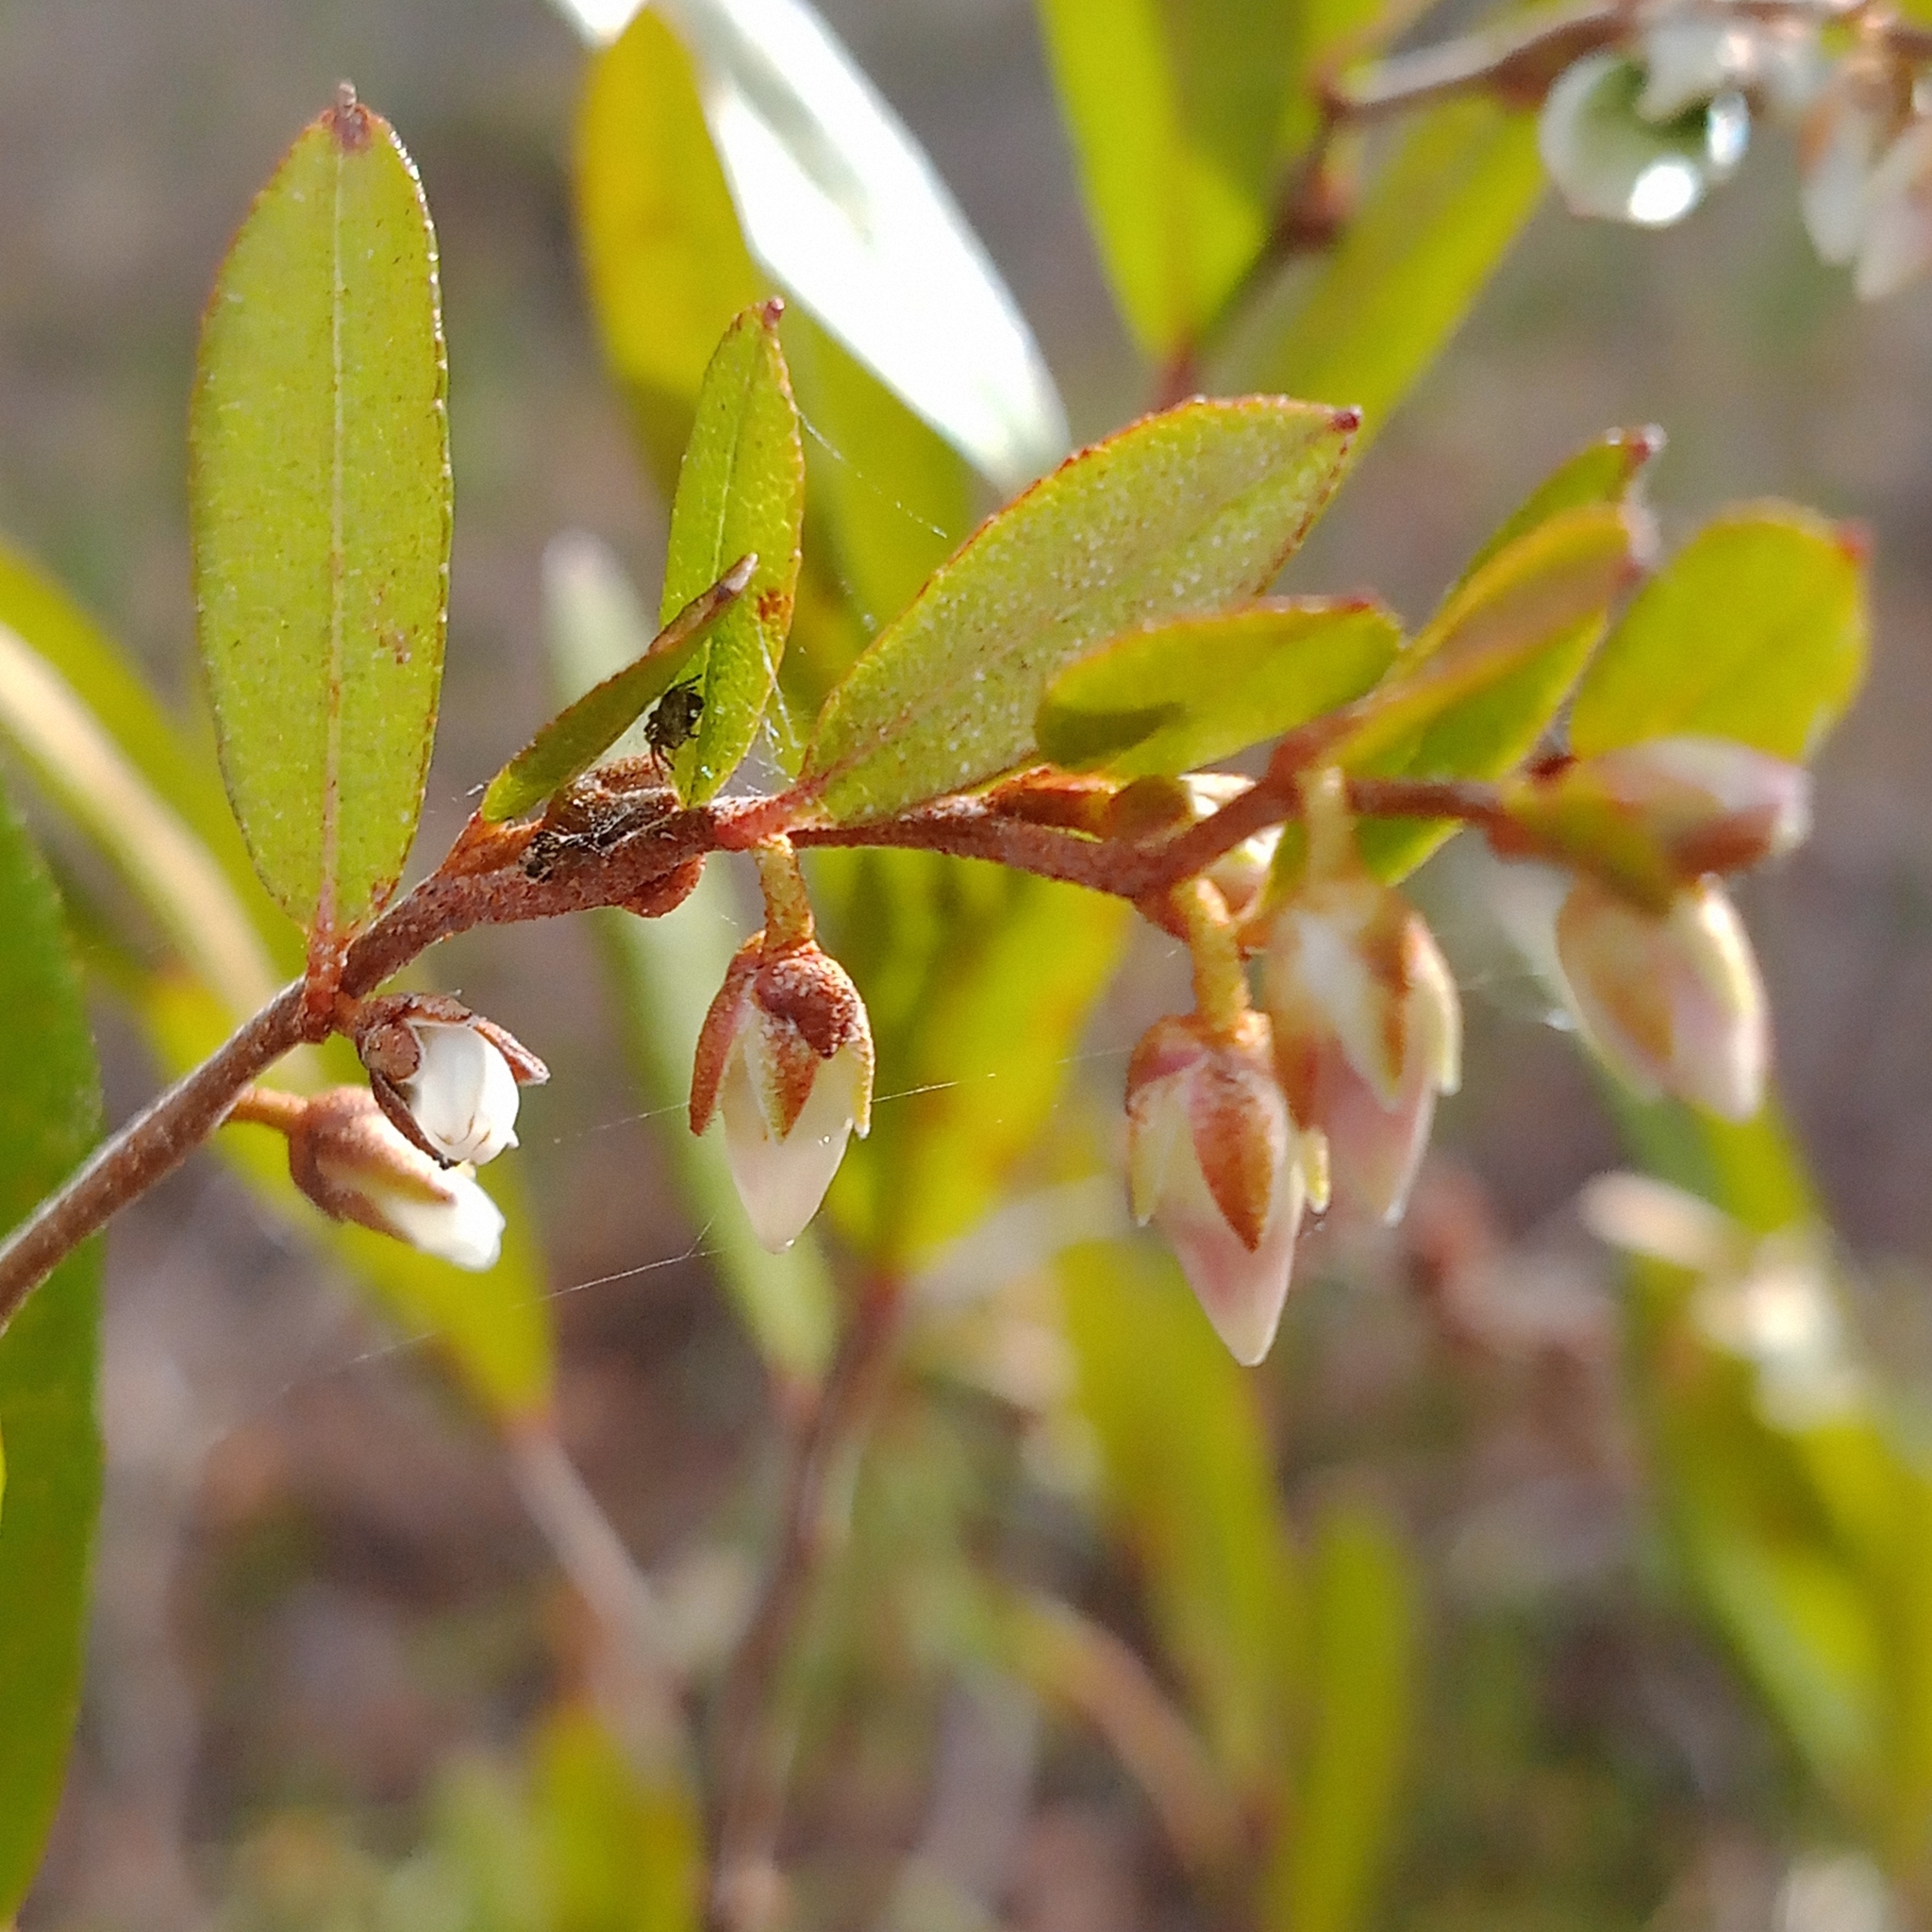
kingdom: Plantae
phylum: Tracheophyta
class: Magnoliopsida
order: Ericales
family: Ericaceae
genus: Chamaedaphne
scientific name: Chamaedaphne calyculata
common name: Leatherleaf
